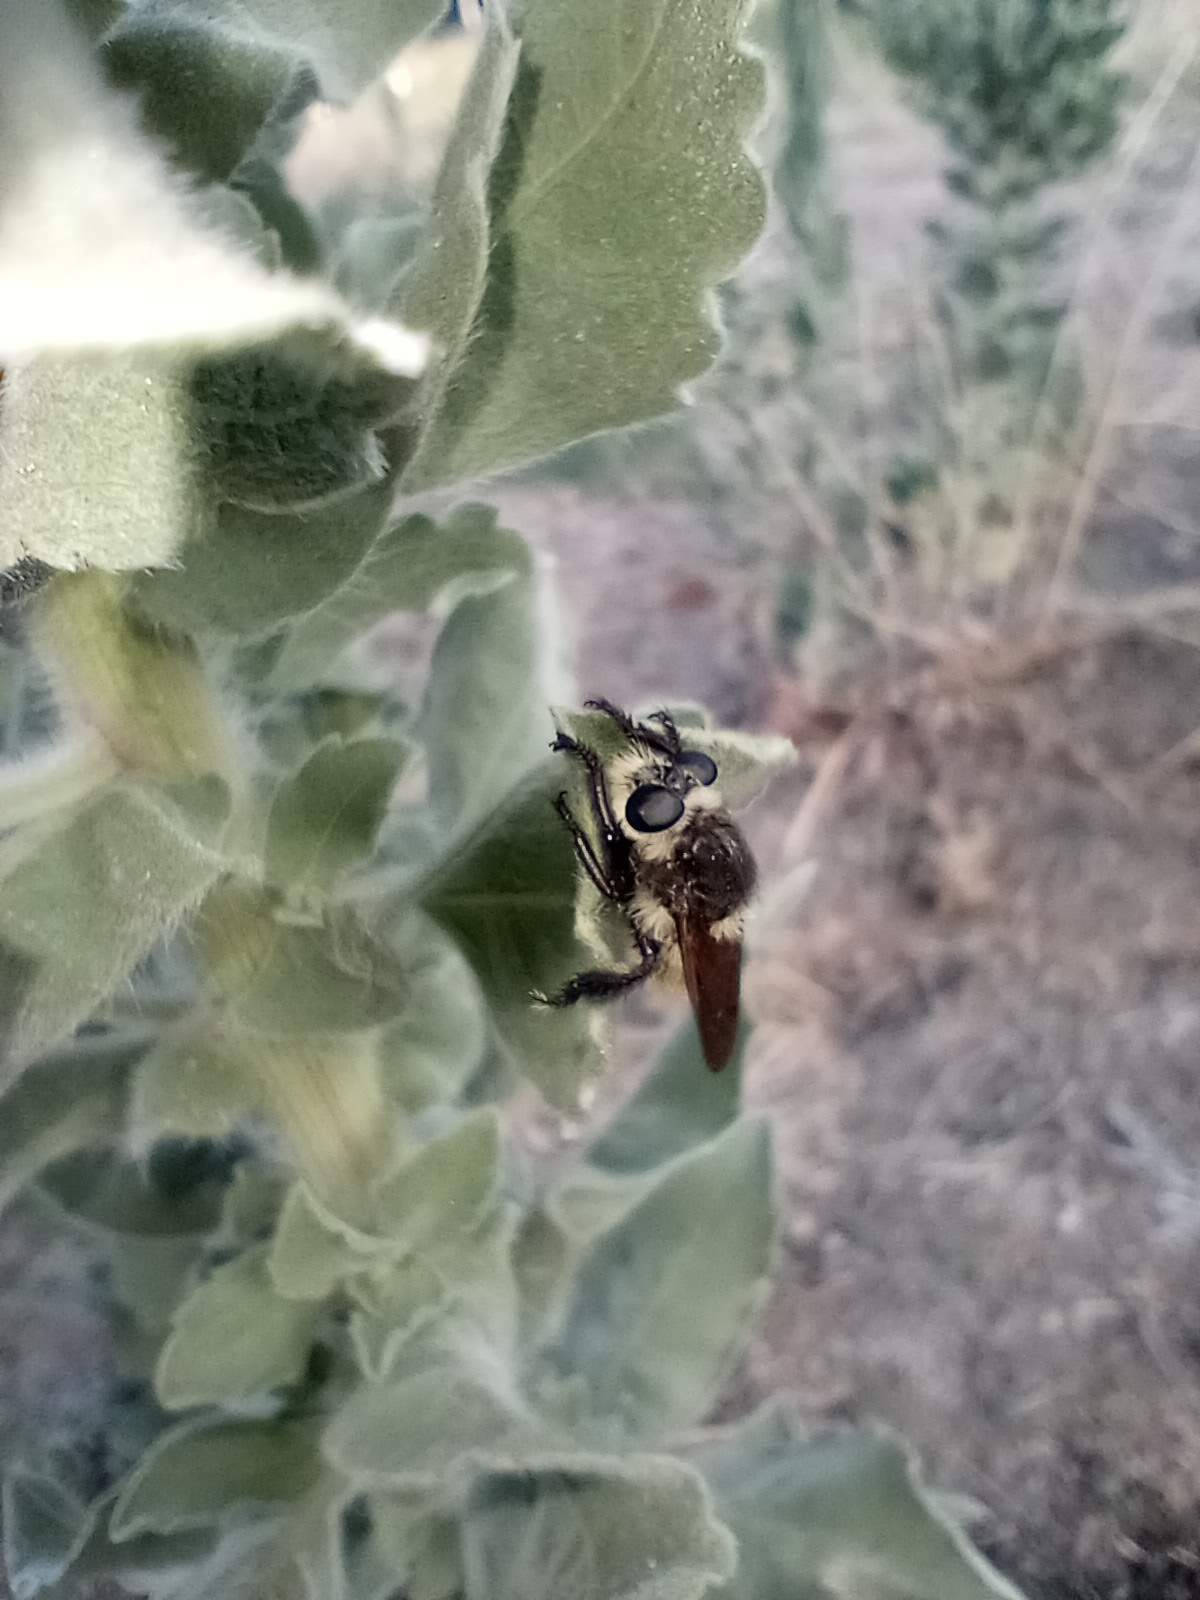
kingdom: Animalia
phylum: Arthropoda
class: Insecta
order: Diptera
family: Asilidae
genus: Mallophora
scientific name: Mallophora fautrix
